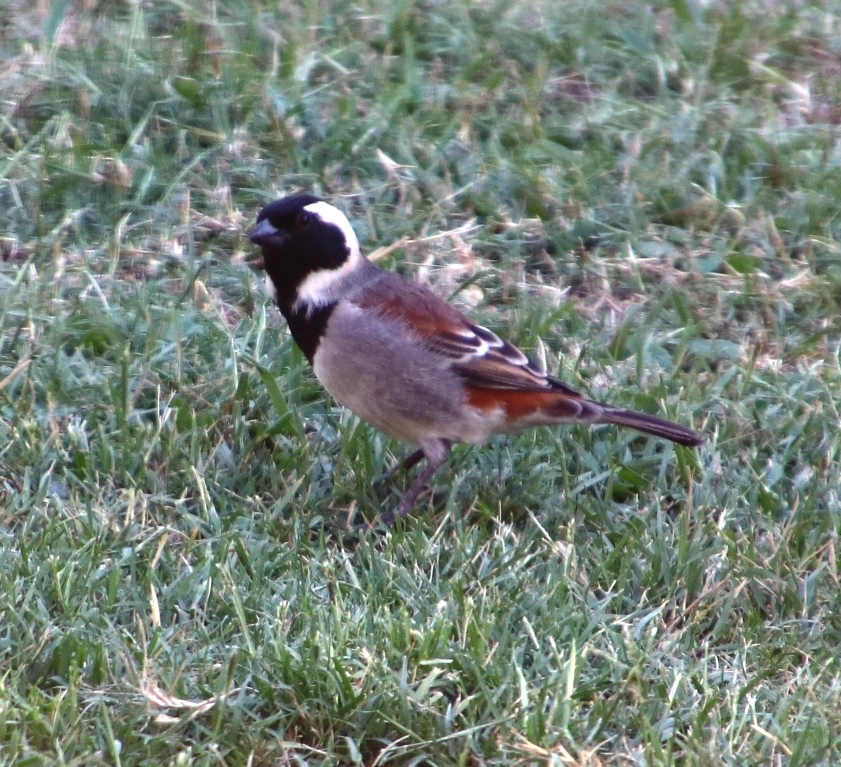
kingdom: Animalia
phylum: Chordata
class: Aves
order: Passeriformes
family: Passeridae
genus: Passer
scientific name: Passer melanurus
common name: Cape sparrow
